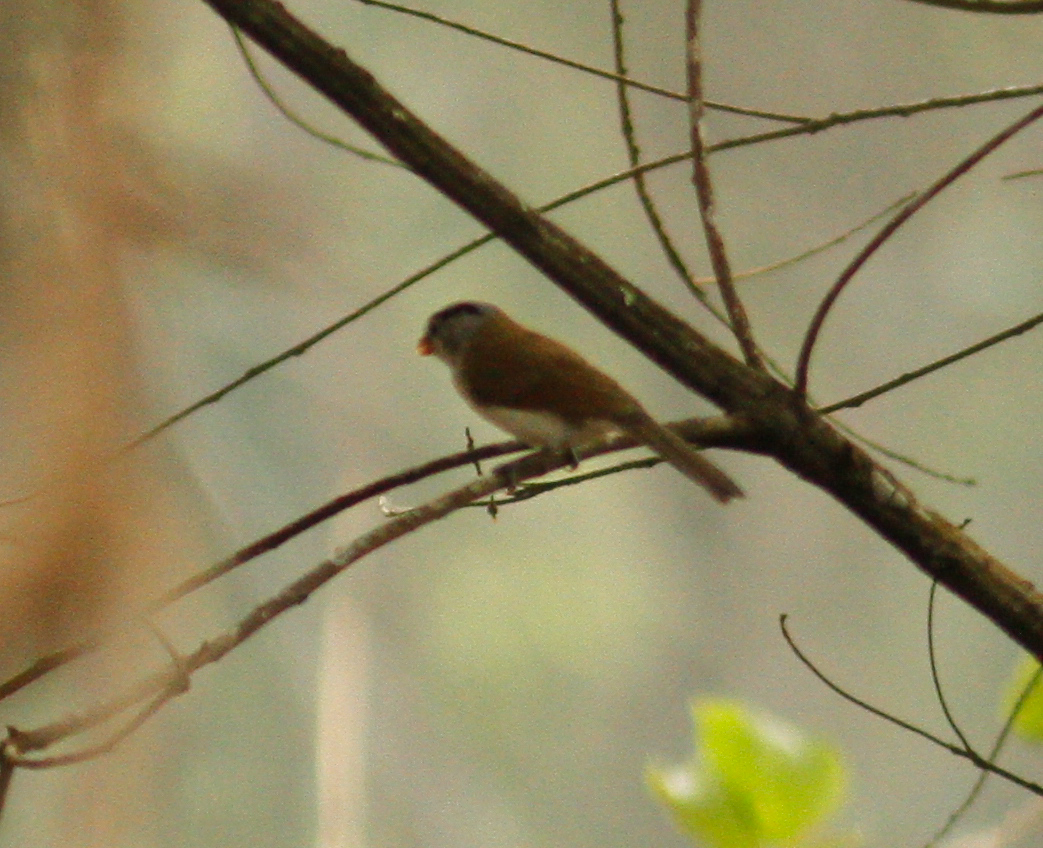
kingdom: Animalia
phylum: Chordata
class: Aves
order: Passeriformes
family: Sylviidae
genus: Psittiparus
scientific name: Psittiparus gularis
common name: Gray-headed parrotbill
